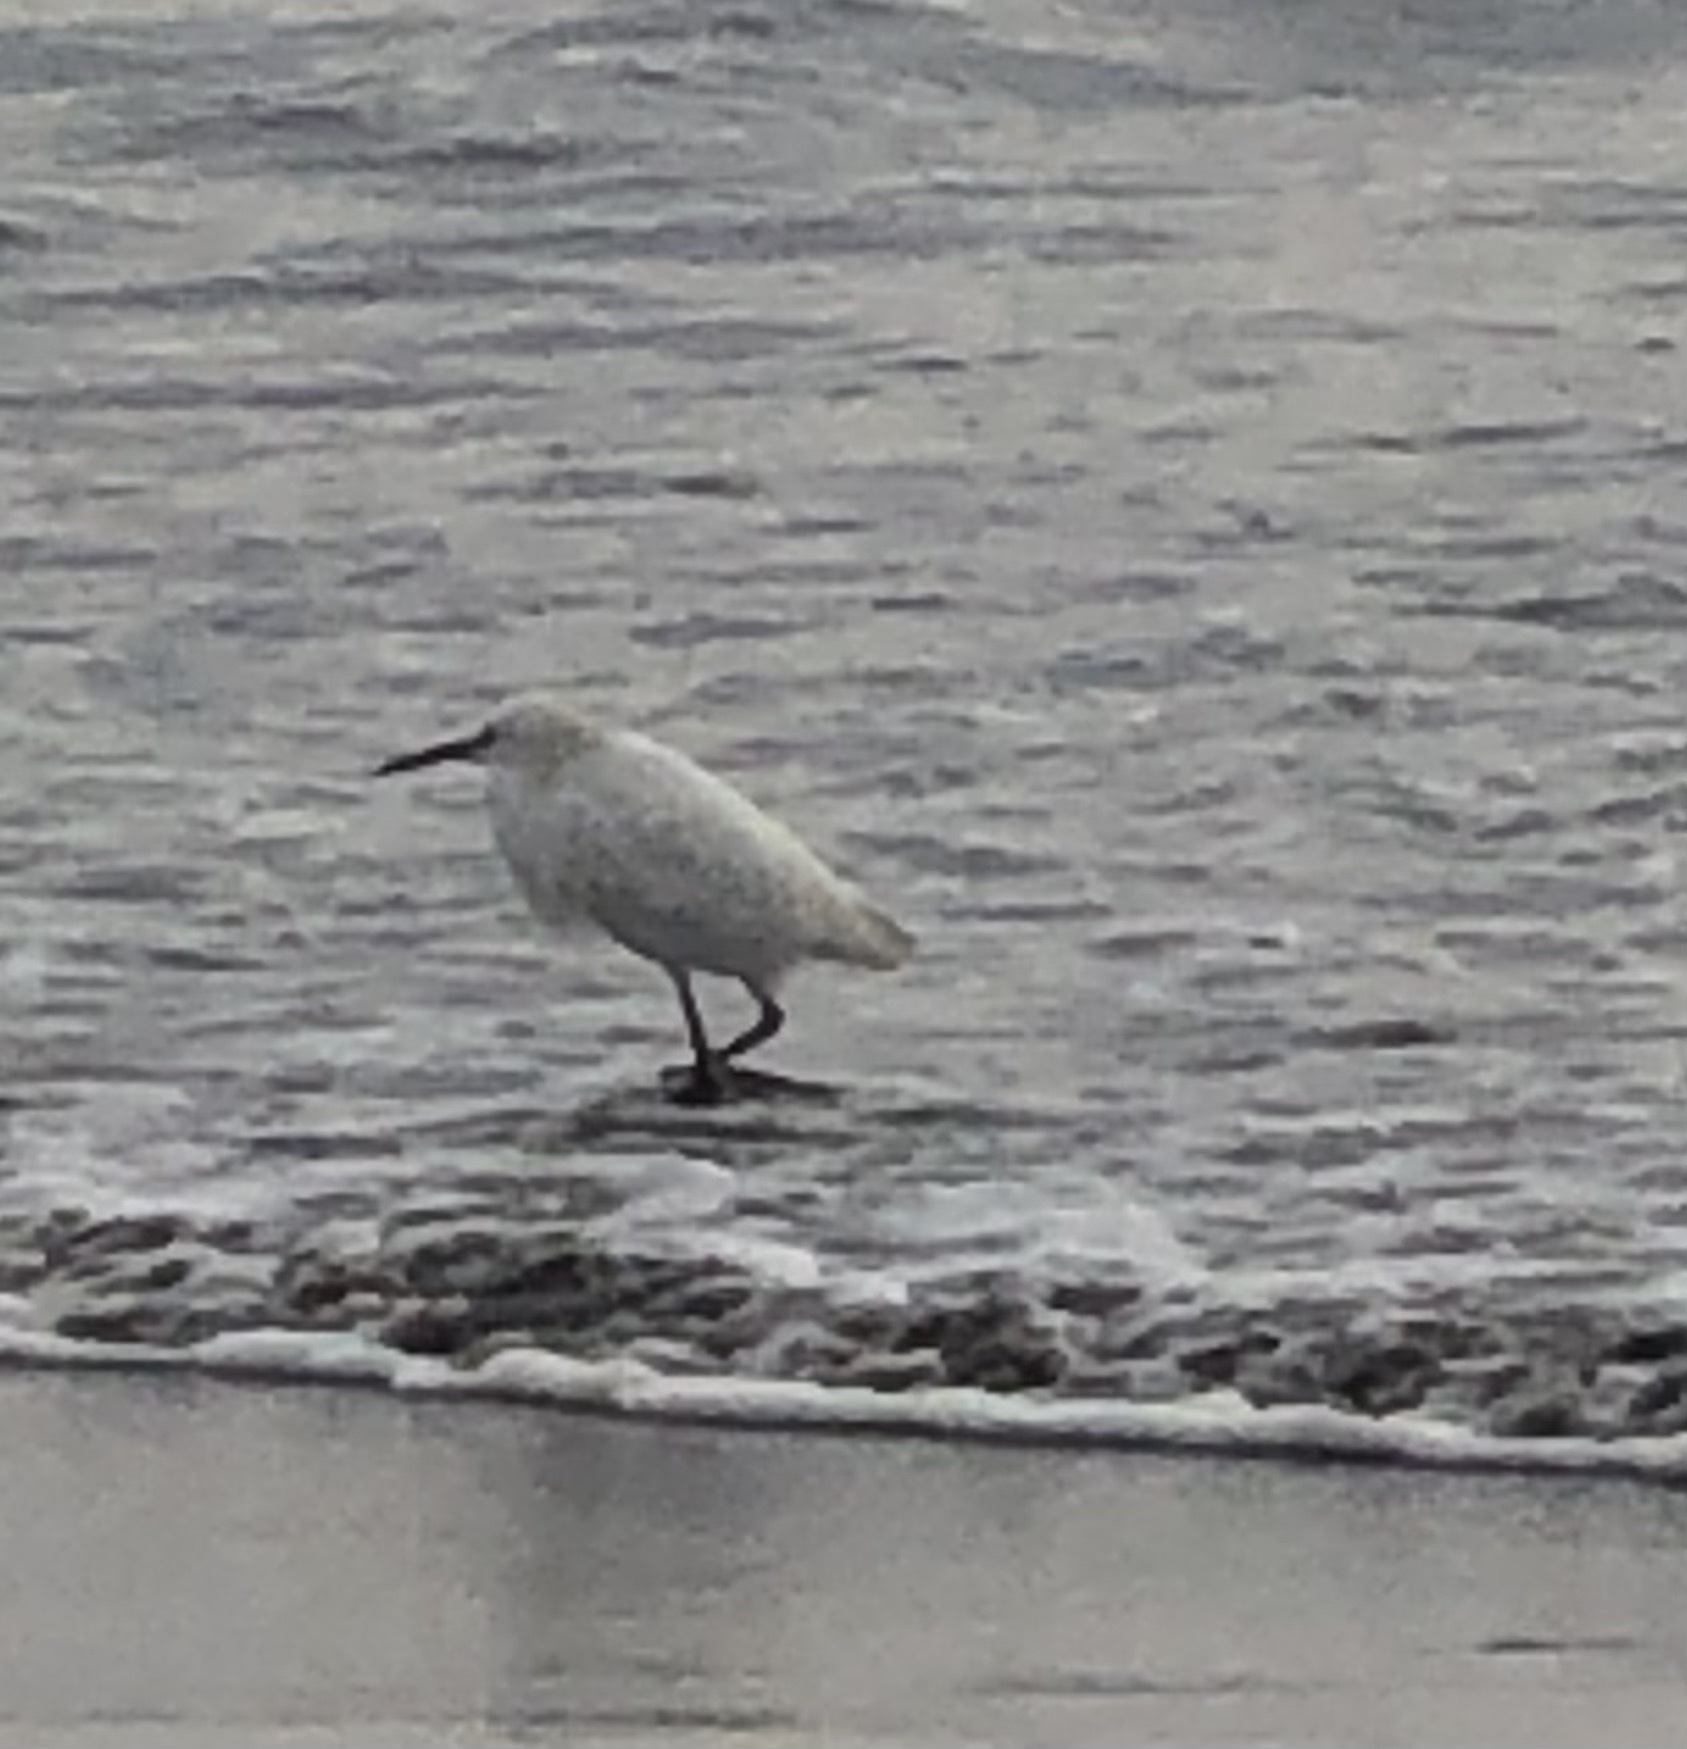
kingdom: Animalia
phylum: Chordata
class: Aves
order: Pelecaniformes
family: Ardeidae
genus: Egretta
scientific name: Egretta thula
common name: Snowy egret
